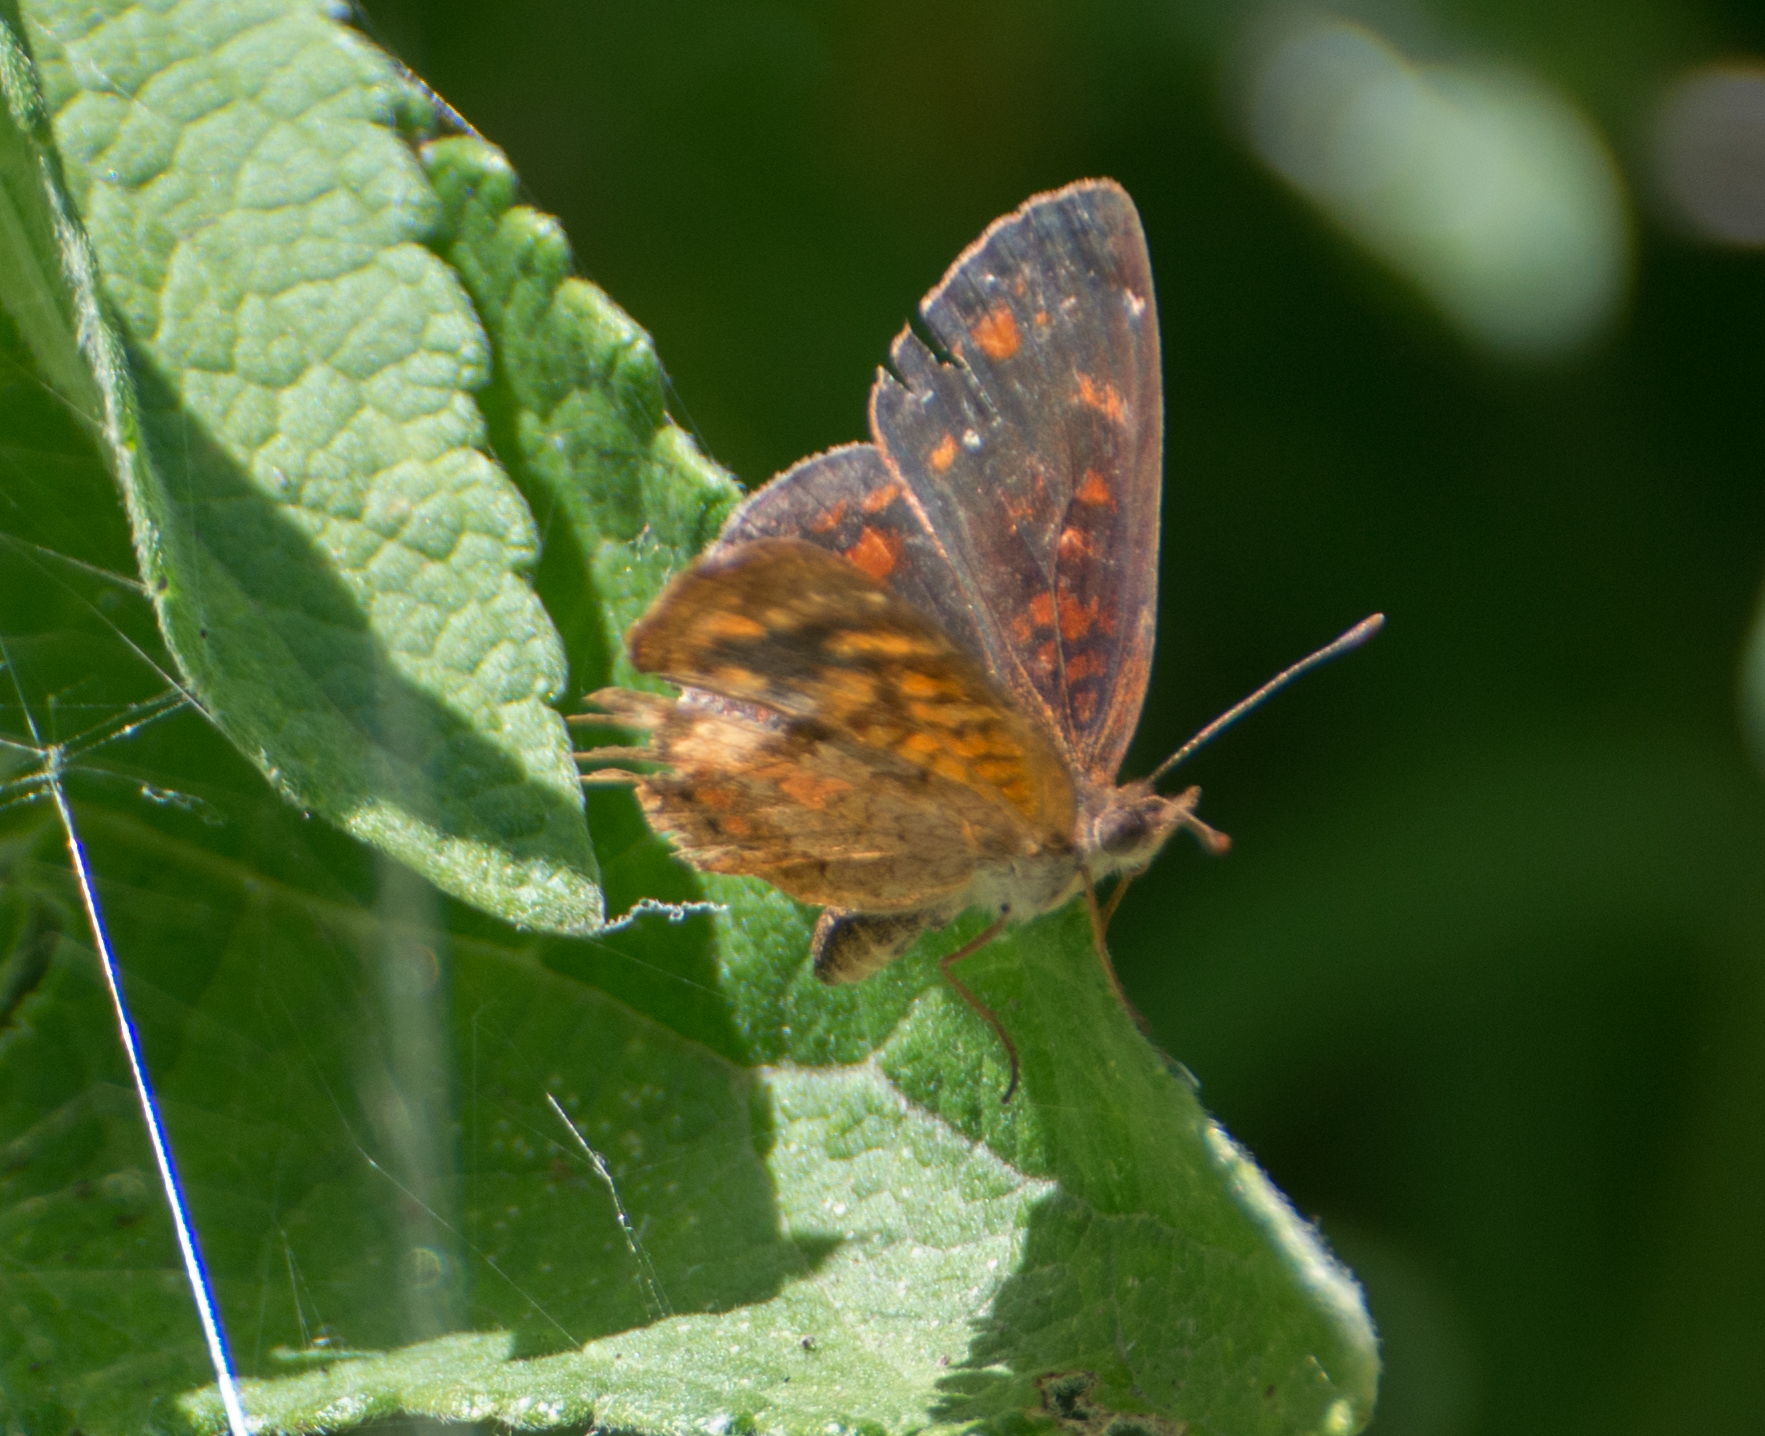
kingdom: Animalia
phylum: Arthropoda
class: Insecta
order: Lepidoptera
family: Nymphalidae
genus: Ortilia
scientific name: Ortilia velica
